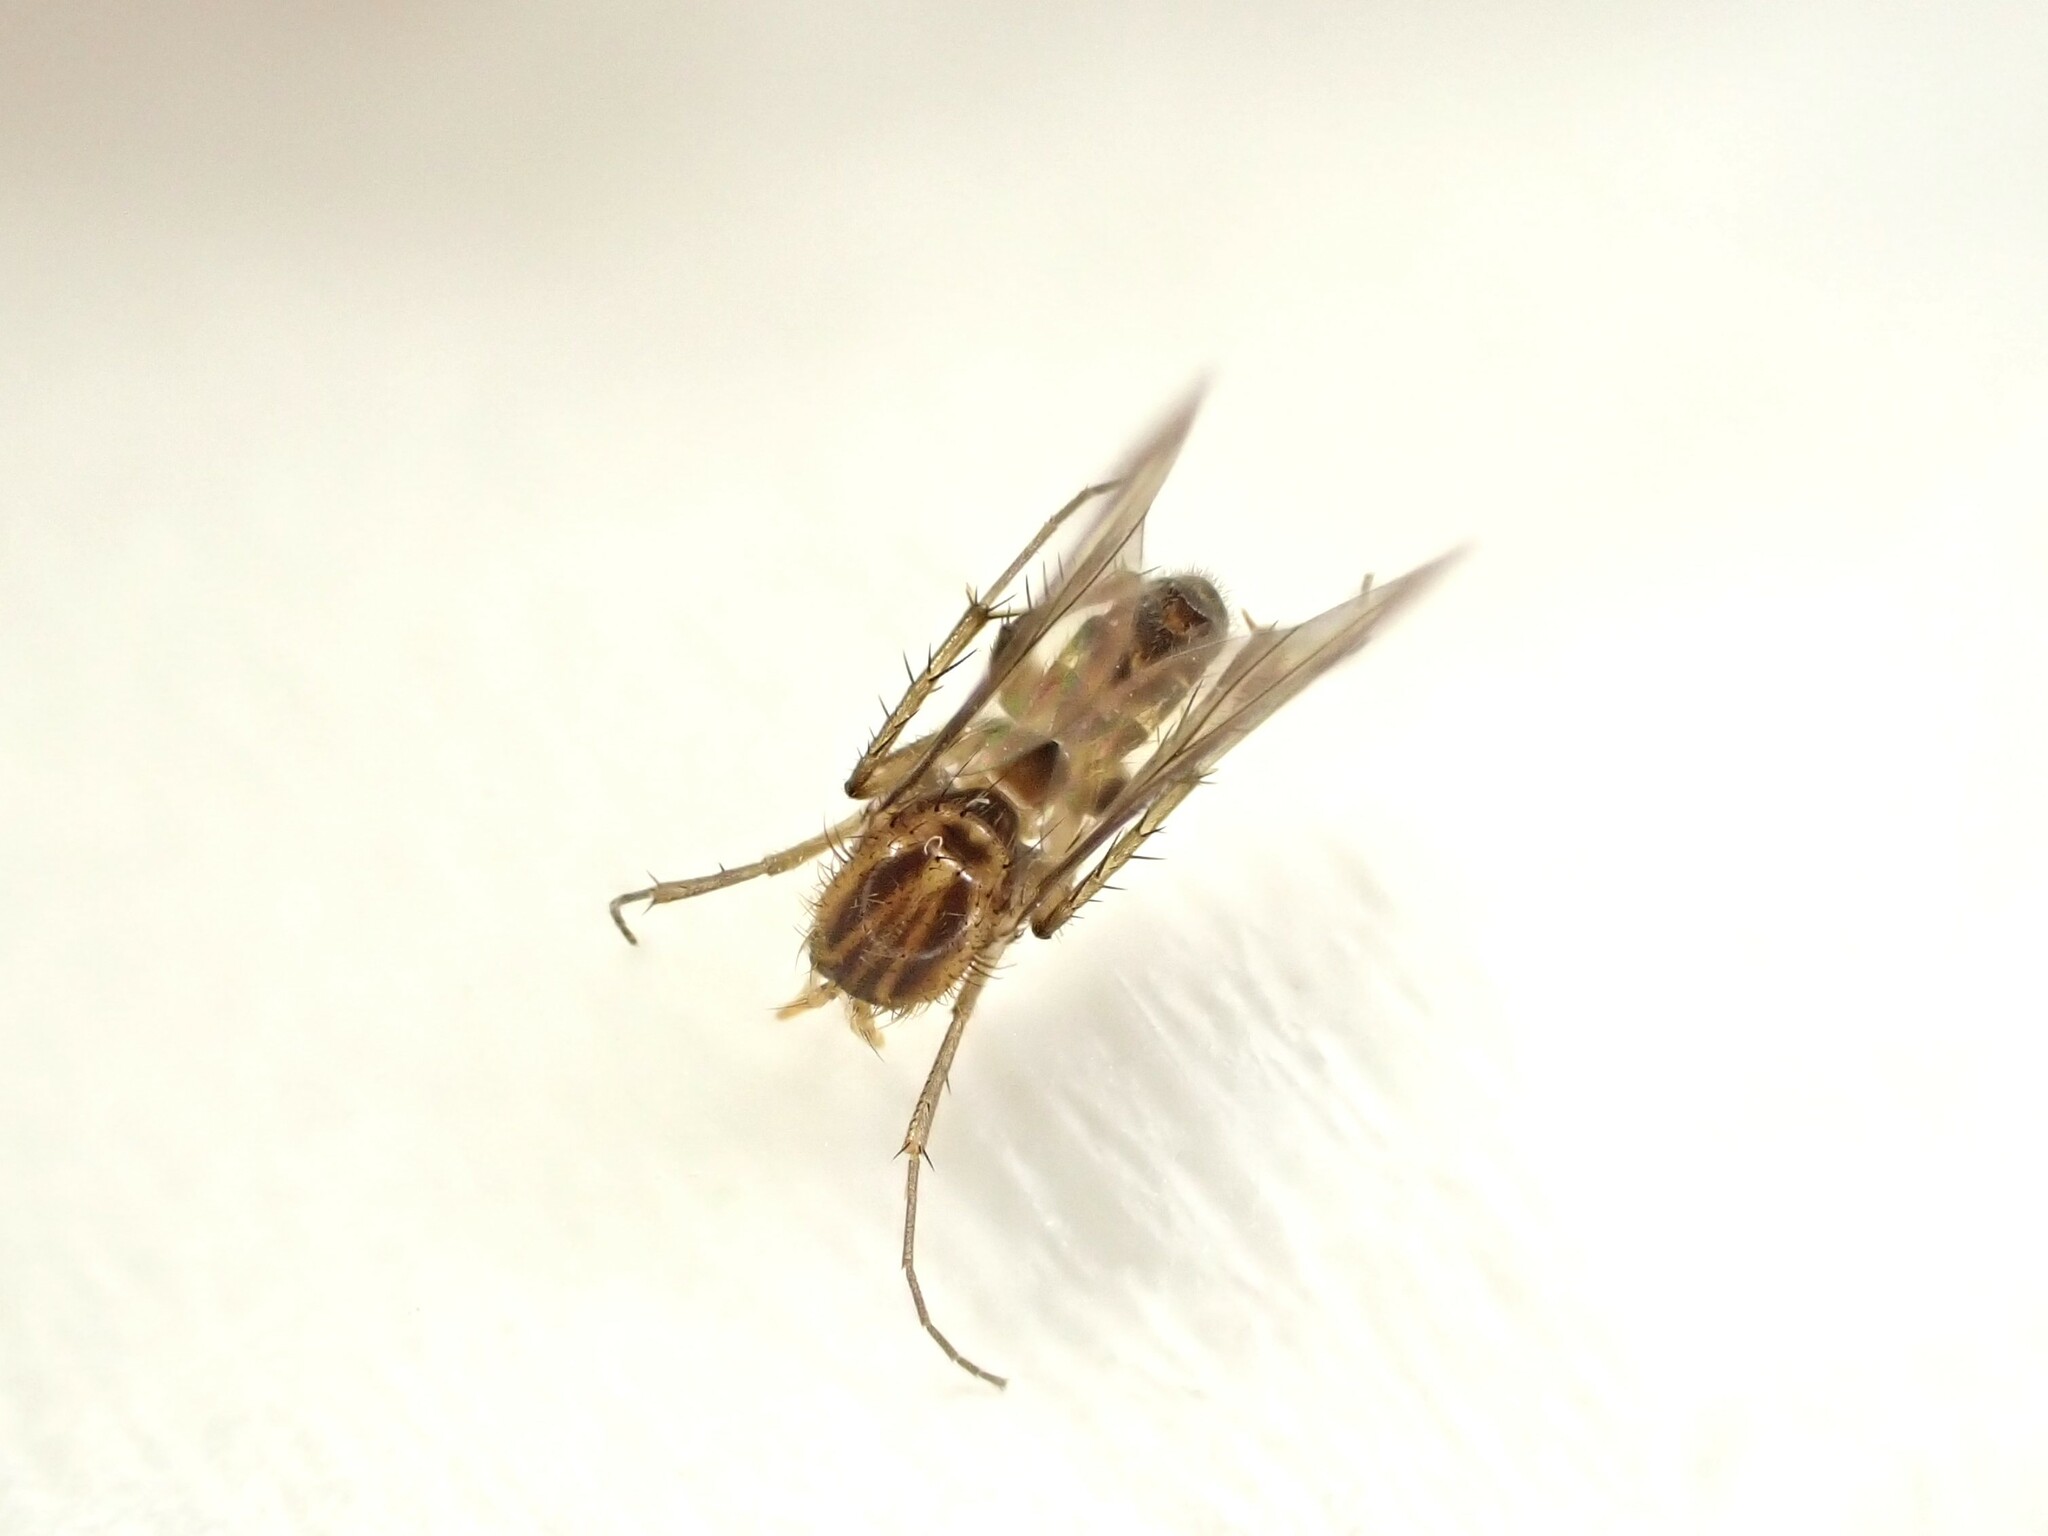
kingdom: Animalia
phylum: Arthropoda
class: Insecta
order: Diptera
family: Mycetophilidae
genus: Anomalomyia
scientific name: Anomalomyia guttata
